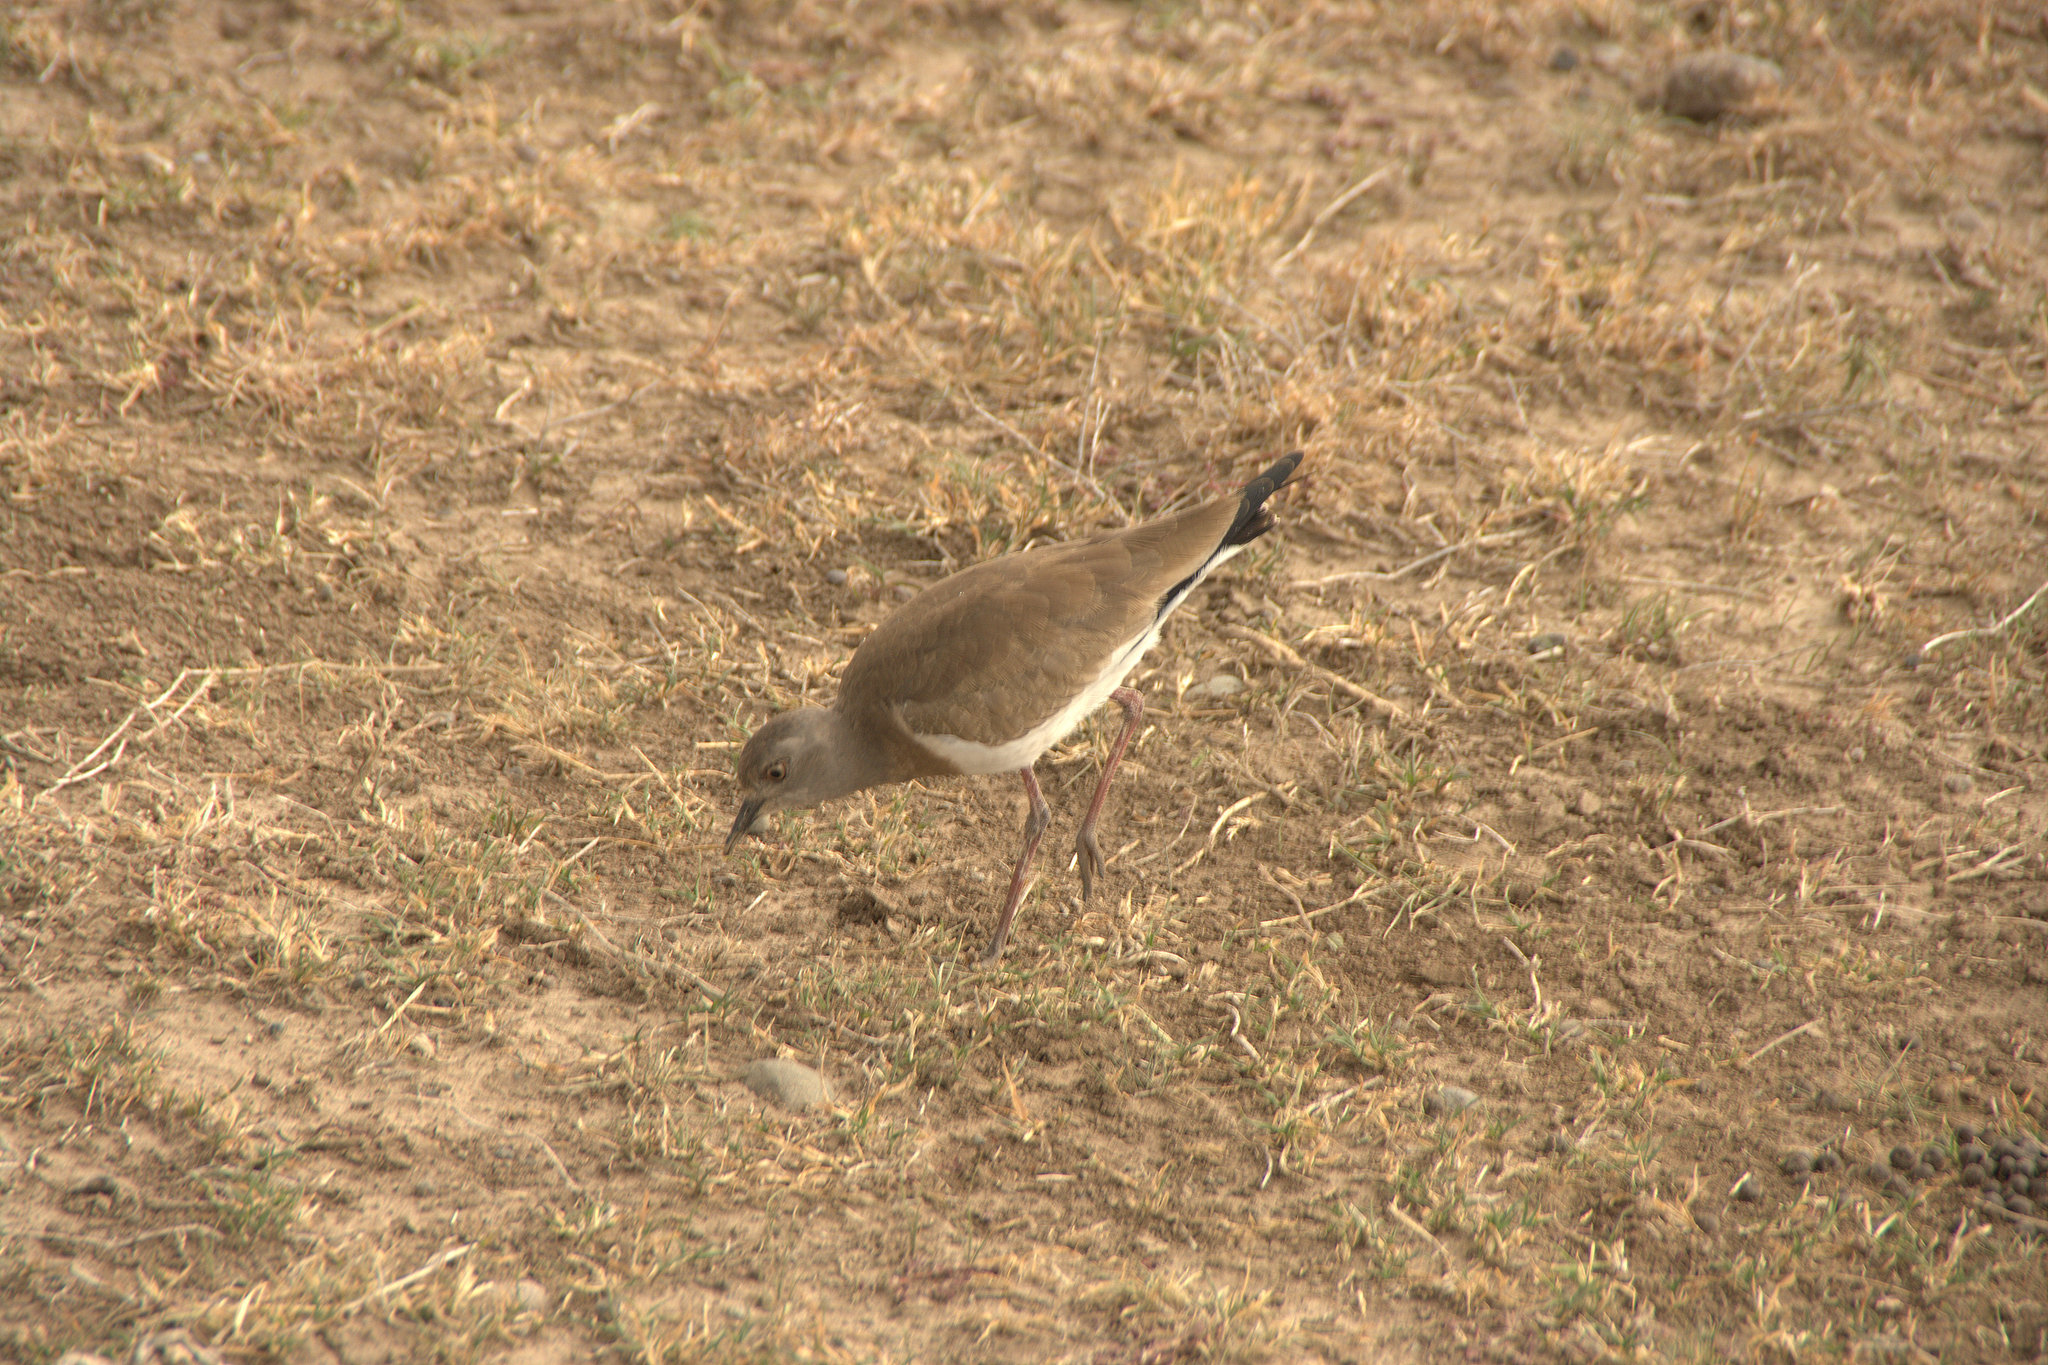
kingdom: Animalia
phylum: Chordata
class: Aves
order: Charadriiformes
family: Charadriidae
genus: Vanellus
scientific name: Vanellus melanopterus
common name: Black-winged lapwing
